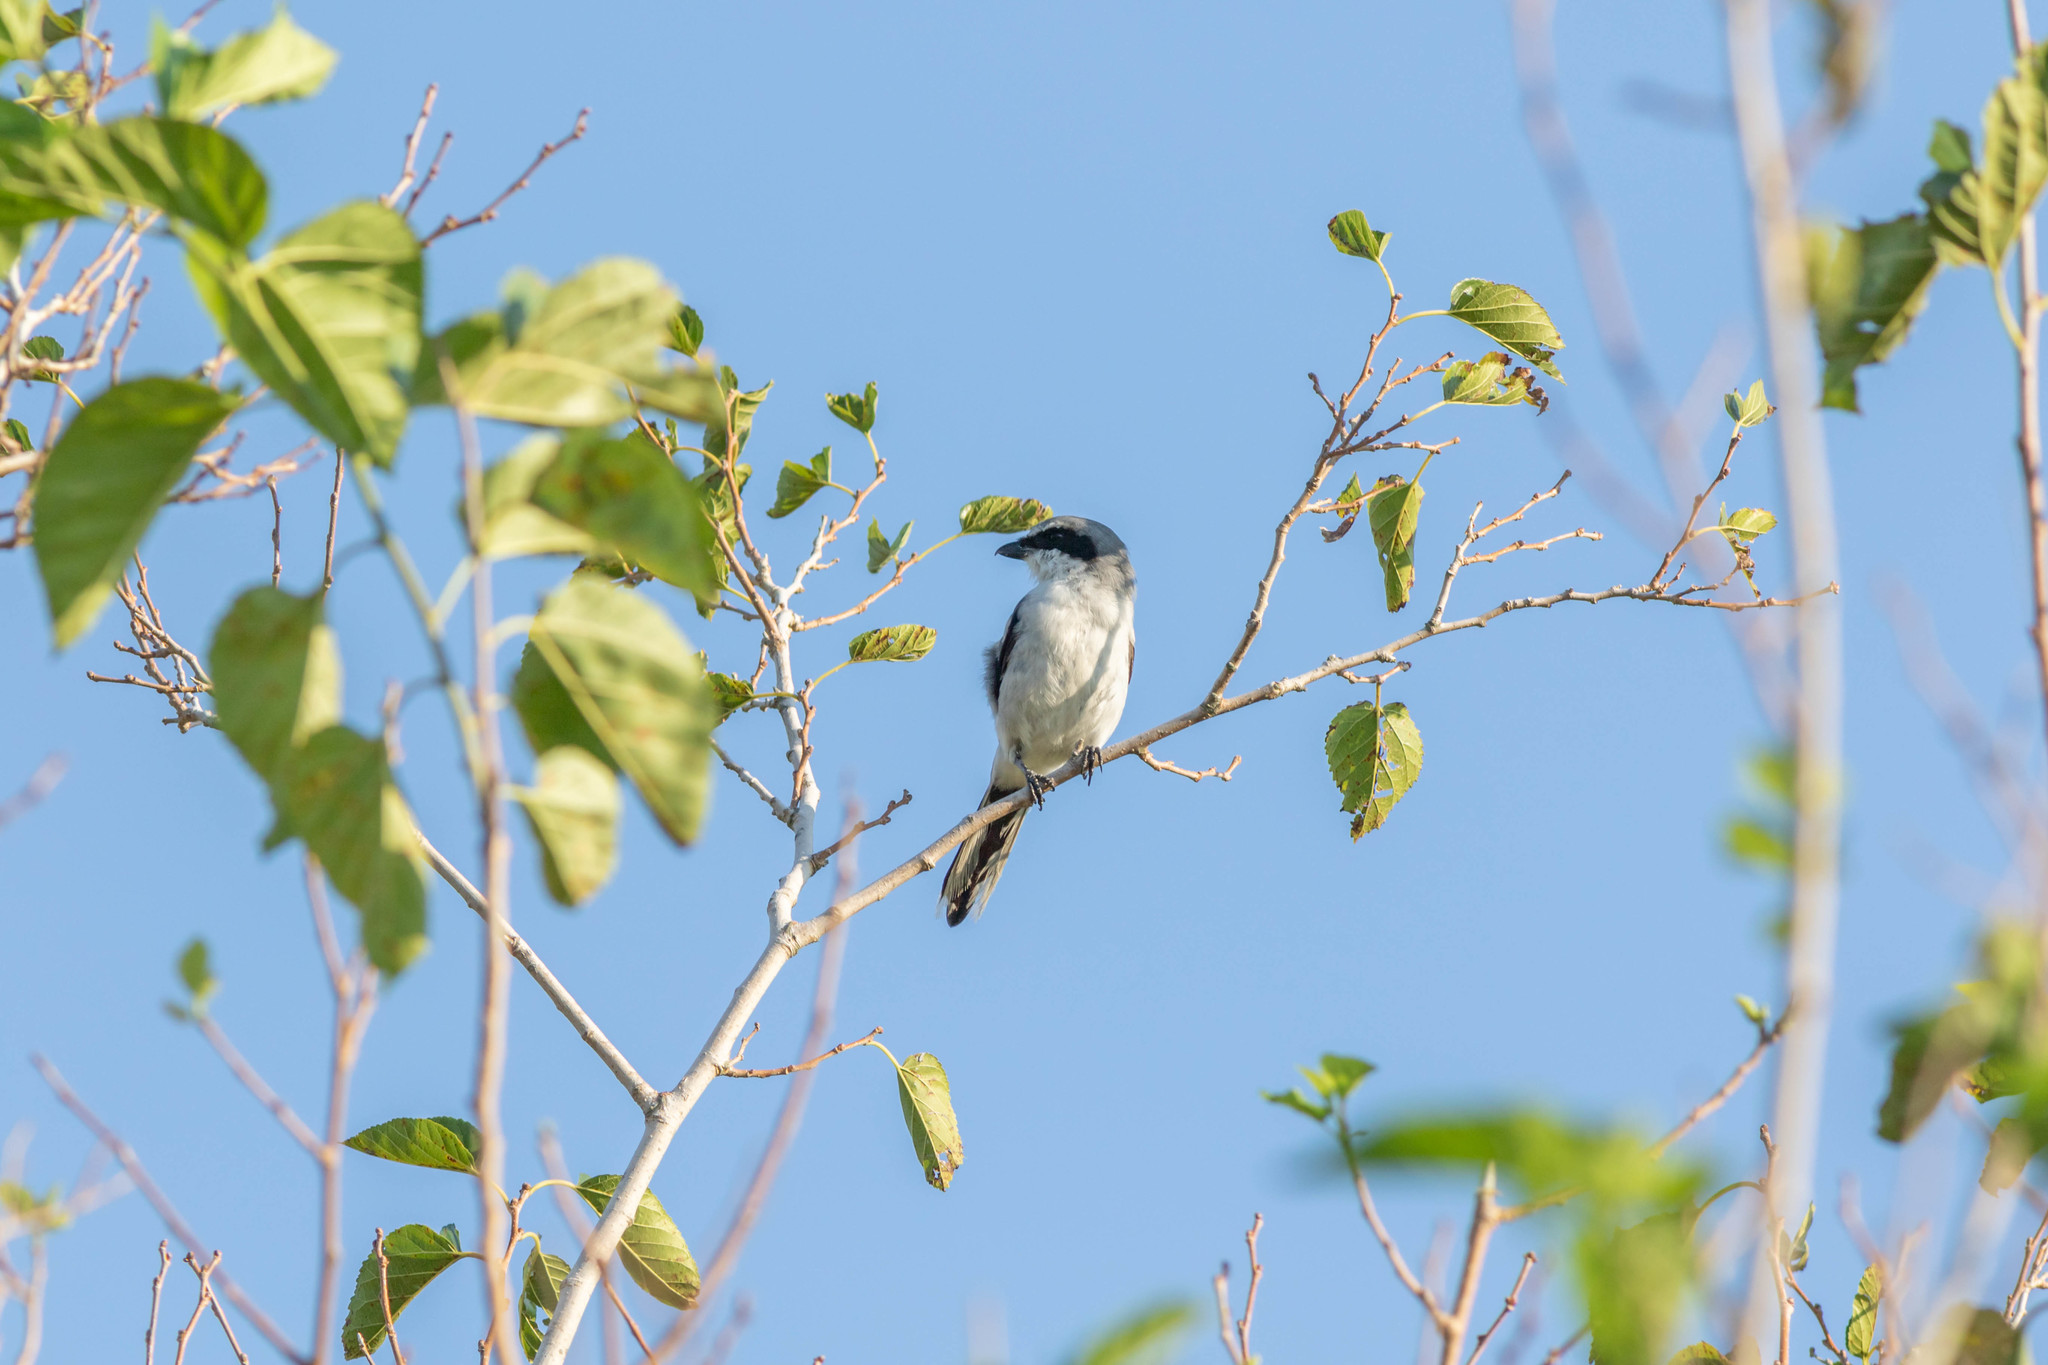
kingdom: Animalia
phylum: Chordata
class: Aves
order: Passeriformes
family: Laniidae
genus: Lanius
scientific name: Lanius ludovicianus
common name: Loggerhead shrike
